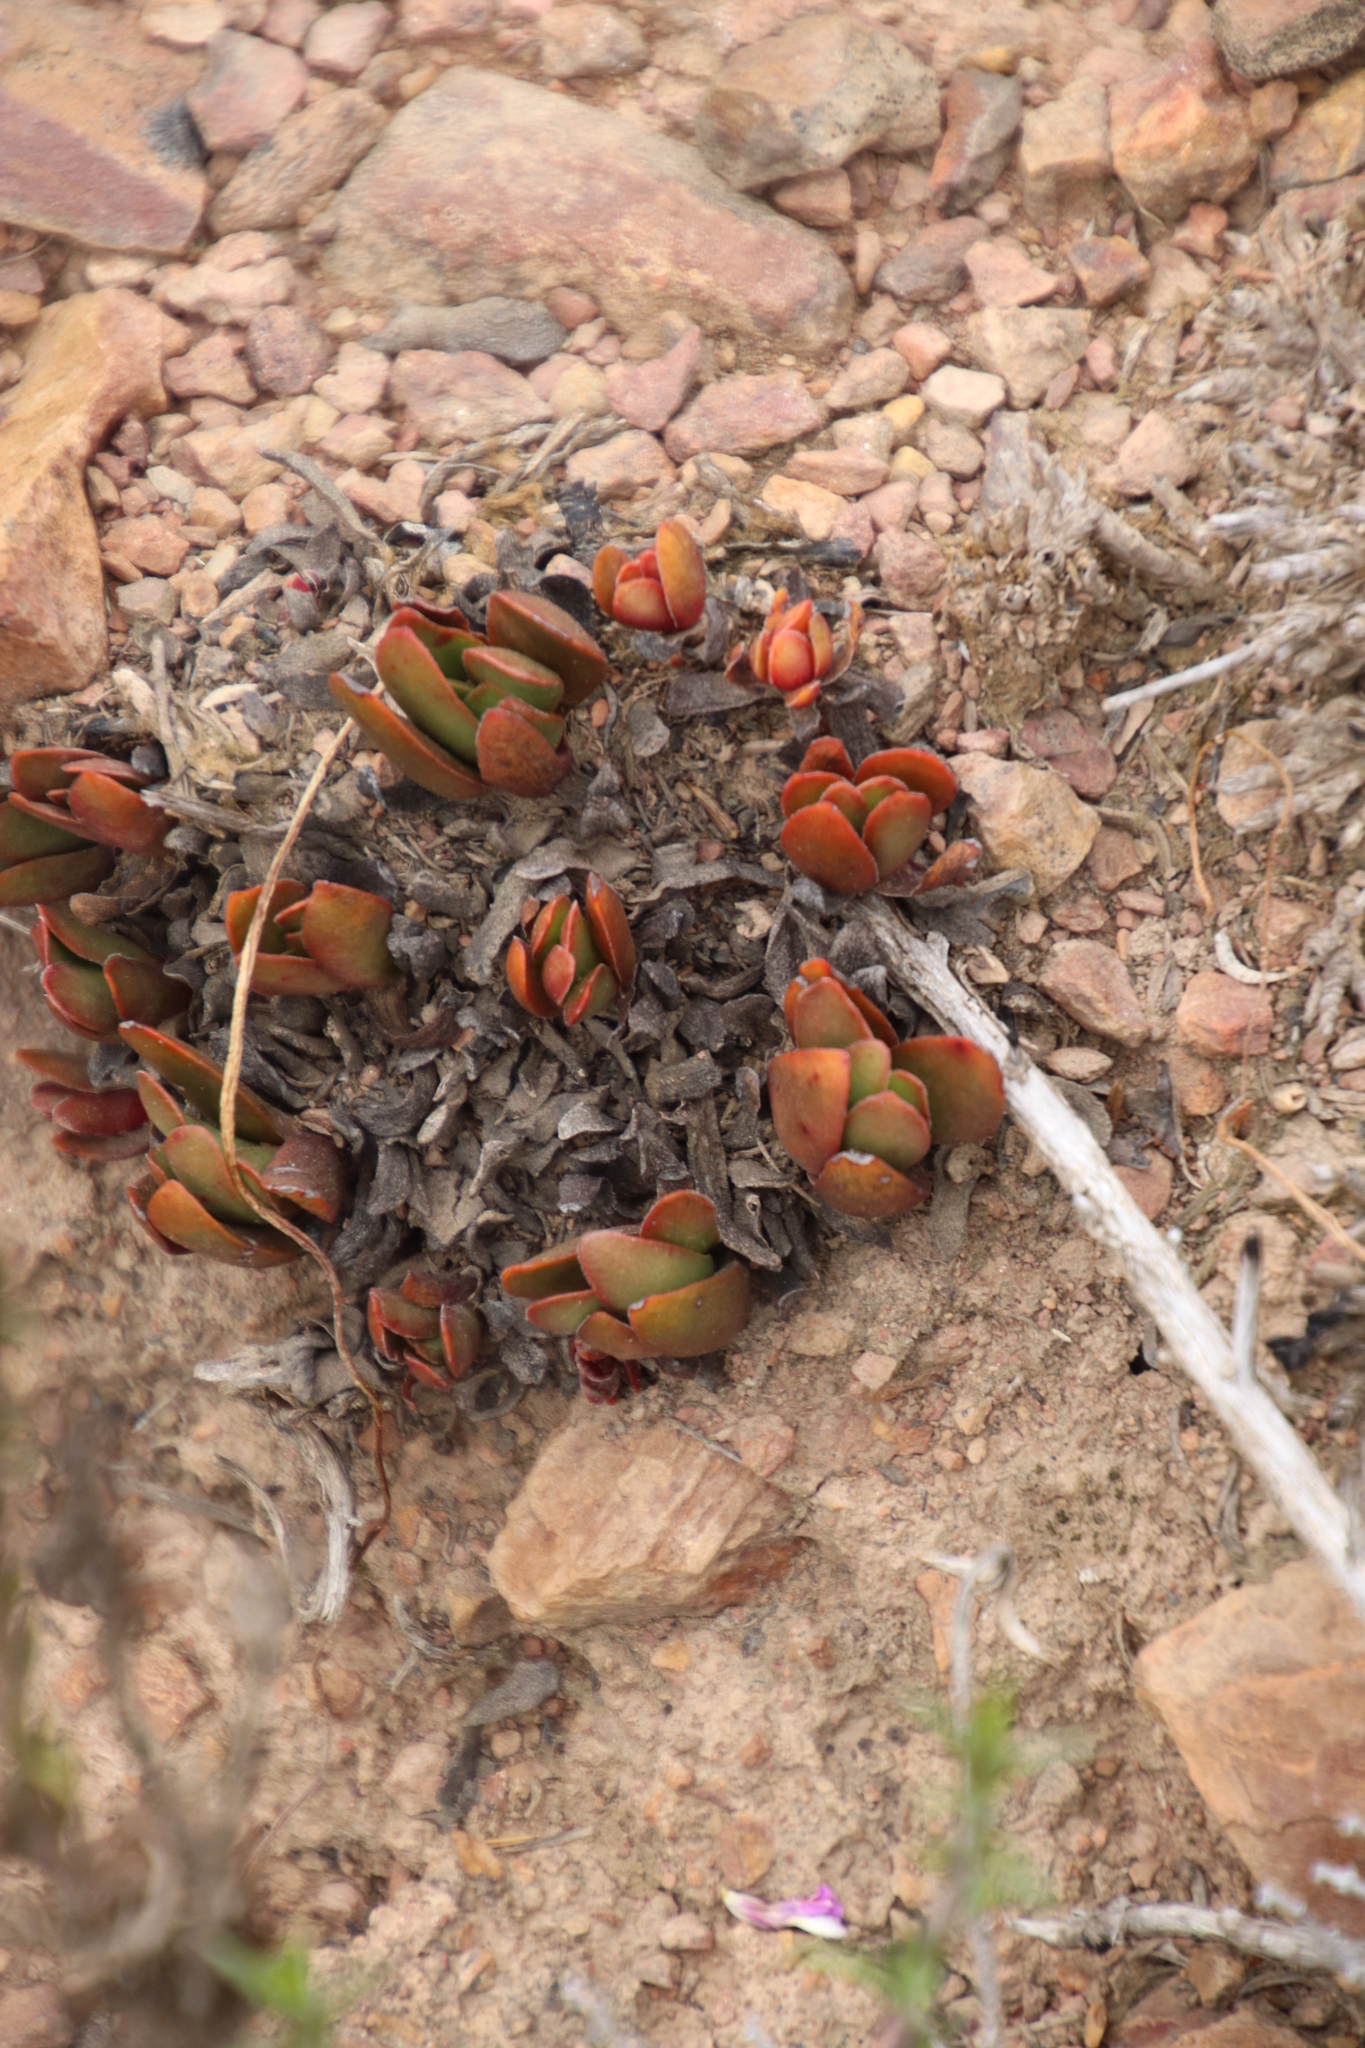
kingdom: Plantae
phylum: Tracheophyta
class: Magnoliopsida
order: Saxifragales
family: Crassulaceae
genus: Crassula
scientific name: Crassula nudicaulis
